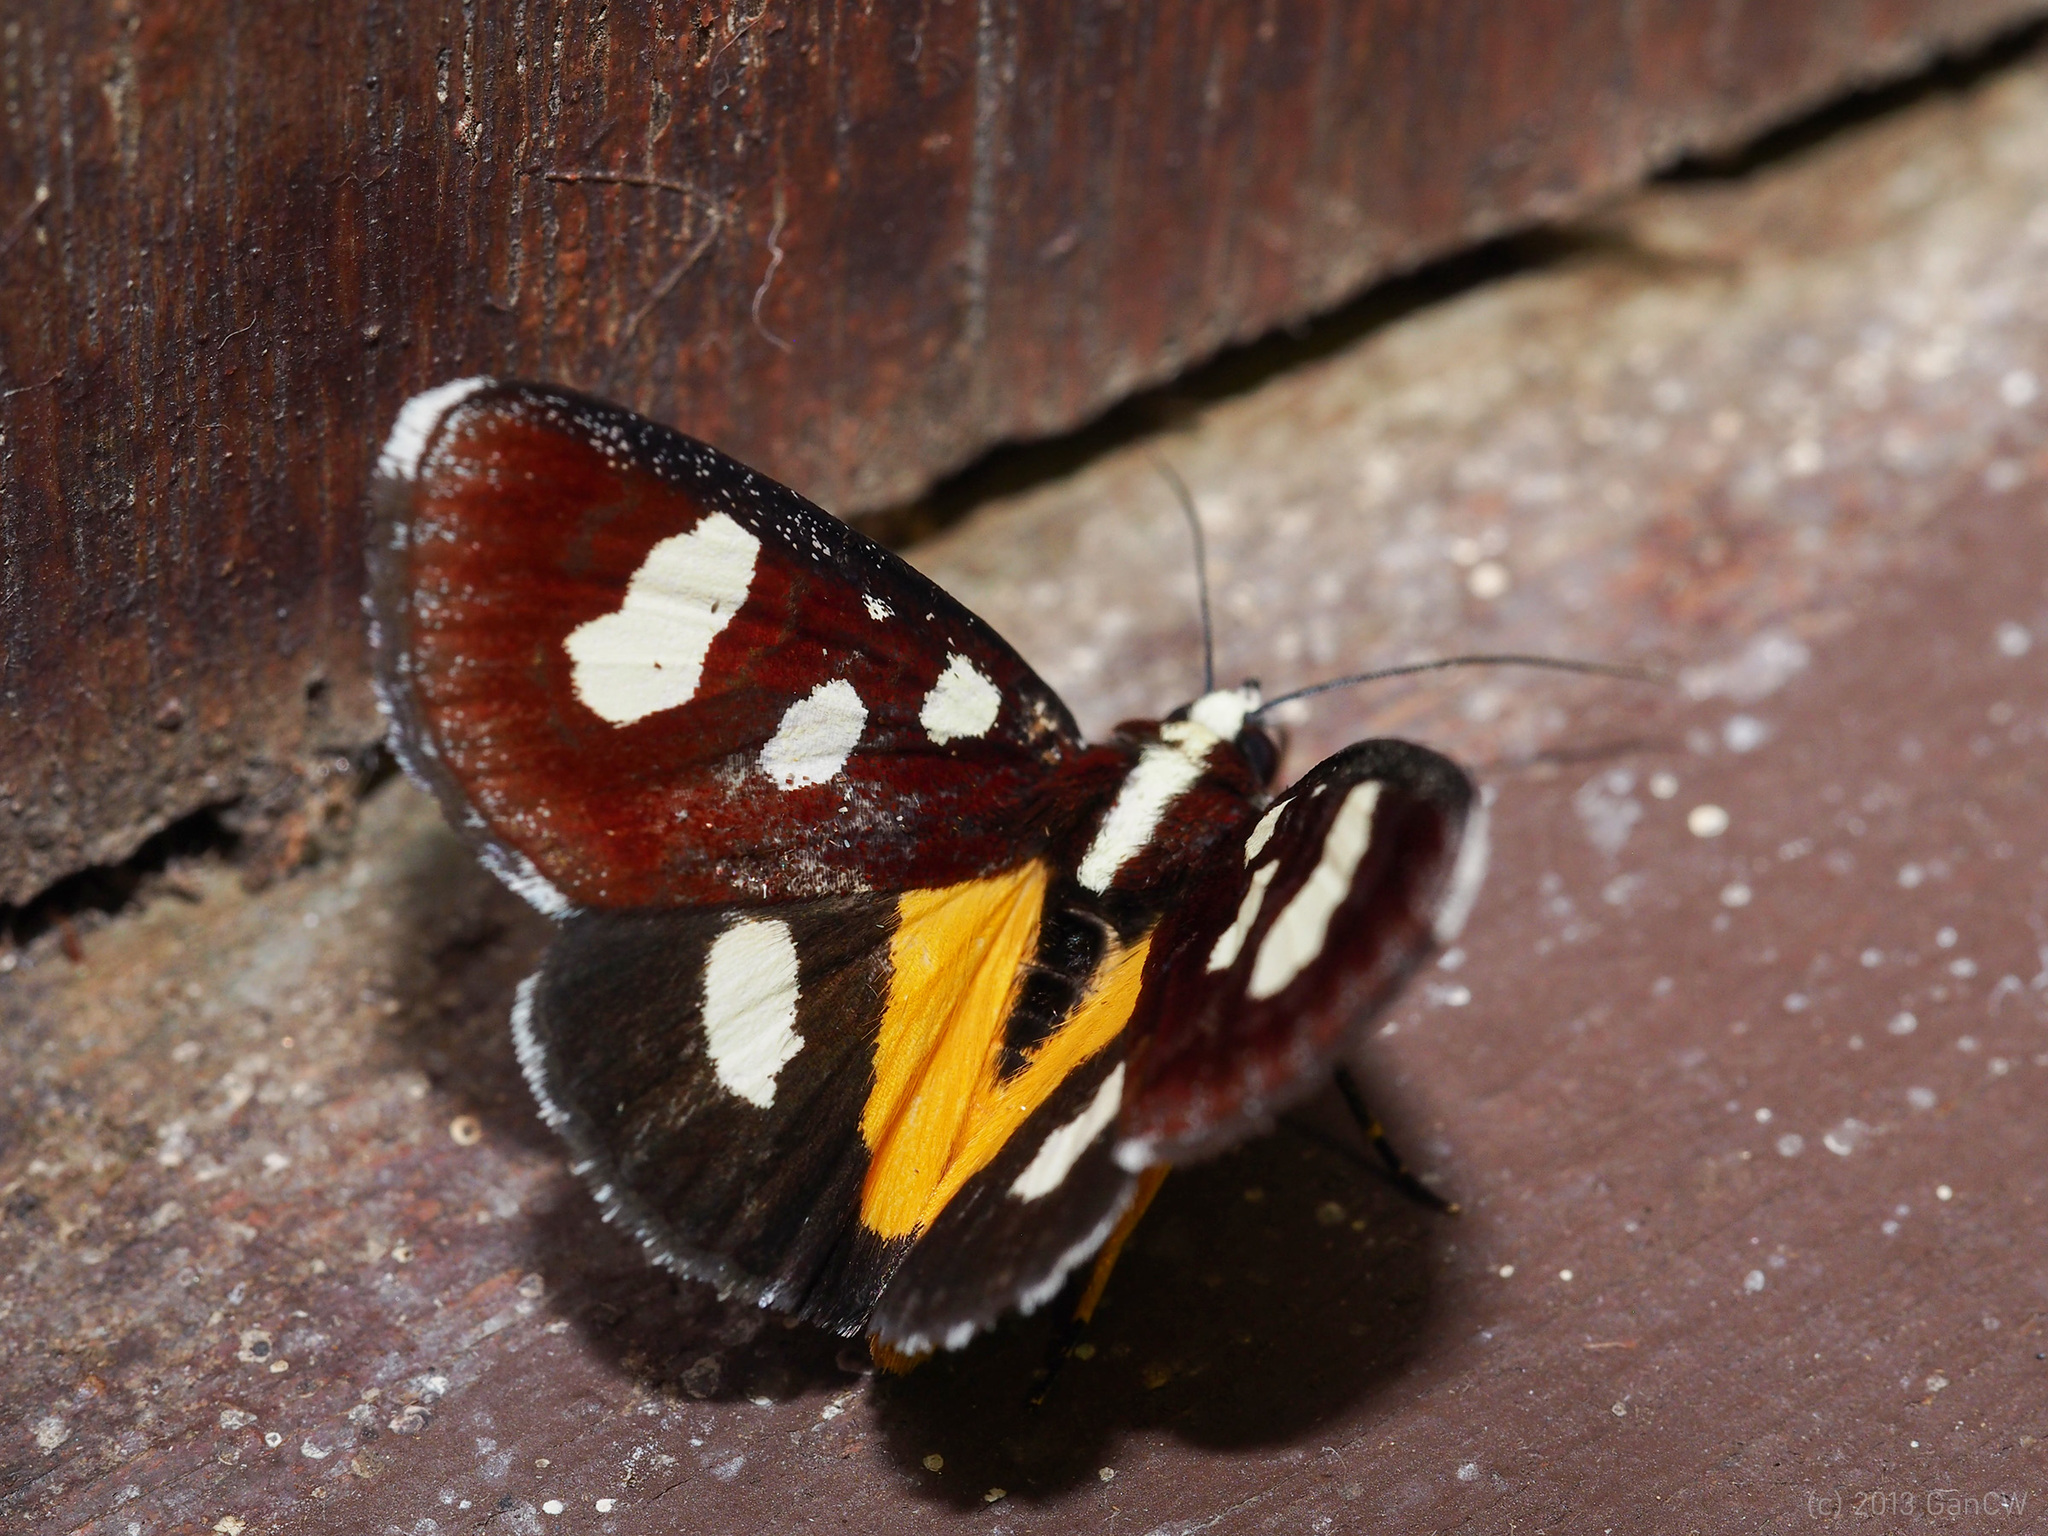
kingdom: Animalia
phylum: Arthropoda
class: Insecta
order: Lepidoptera
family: Noctuidae
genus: Mimeusemia
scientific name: Mimeusemia postica
